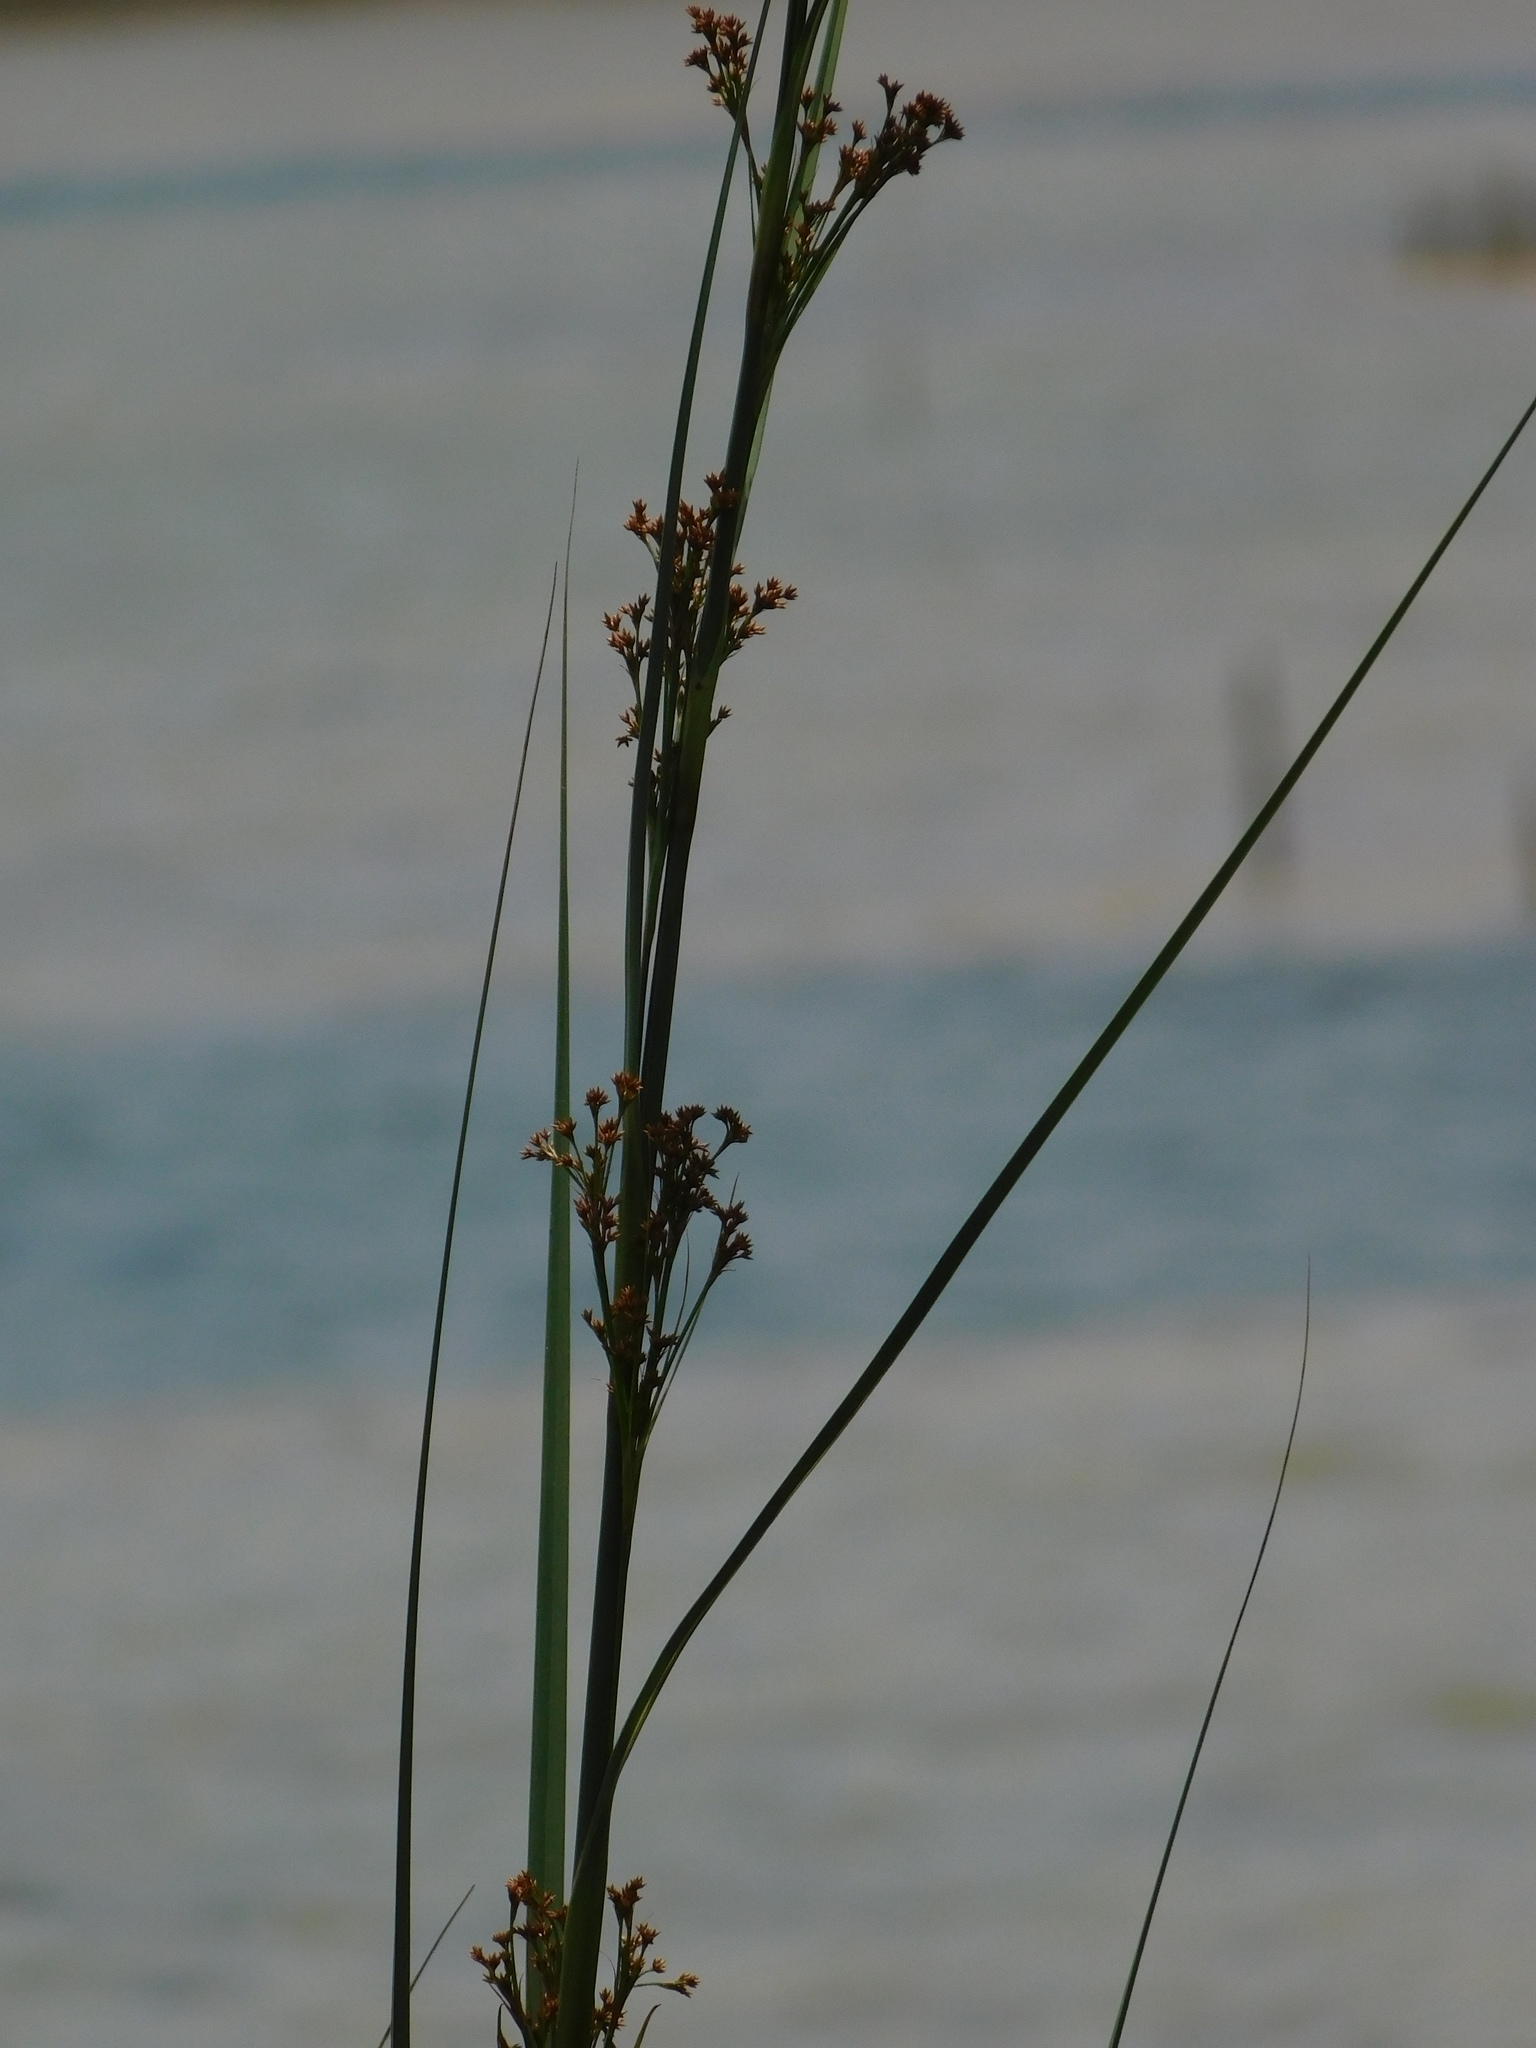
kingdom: Plantae
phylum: Tracheophyta
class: Liliopsida
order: Poales
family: Cyperaceae
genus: Cladium
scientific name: Cladium mariscus
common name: Great fen-sedge
